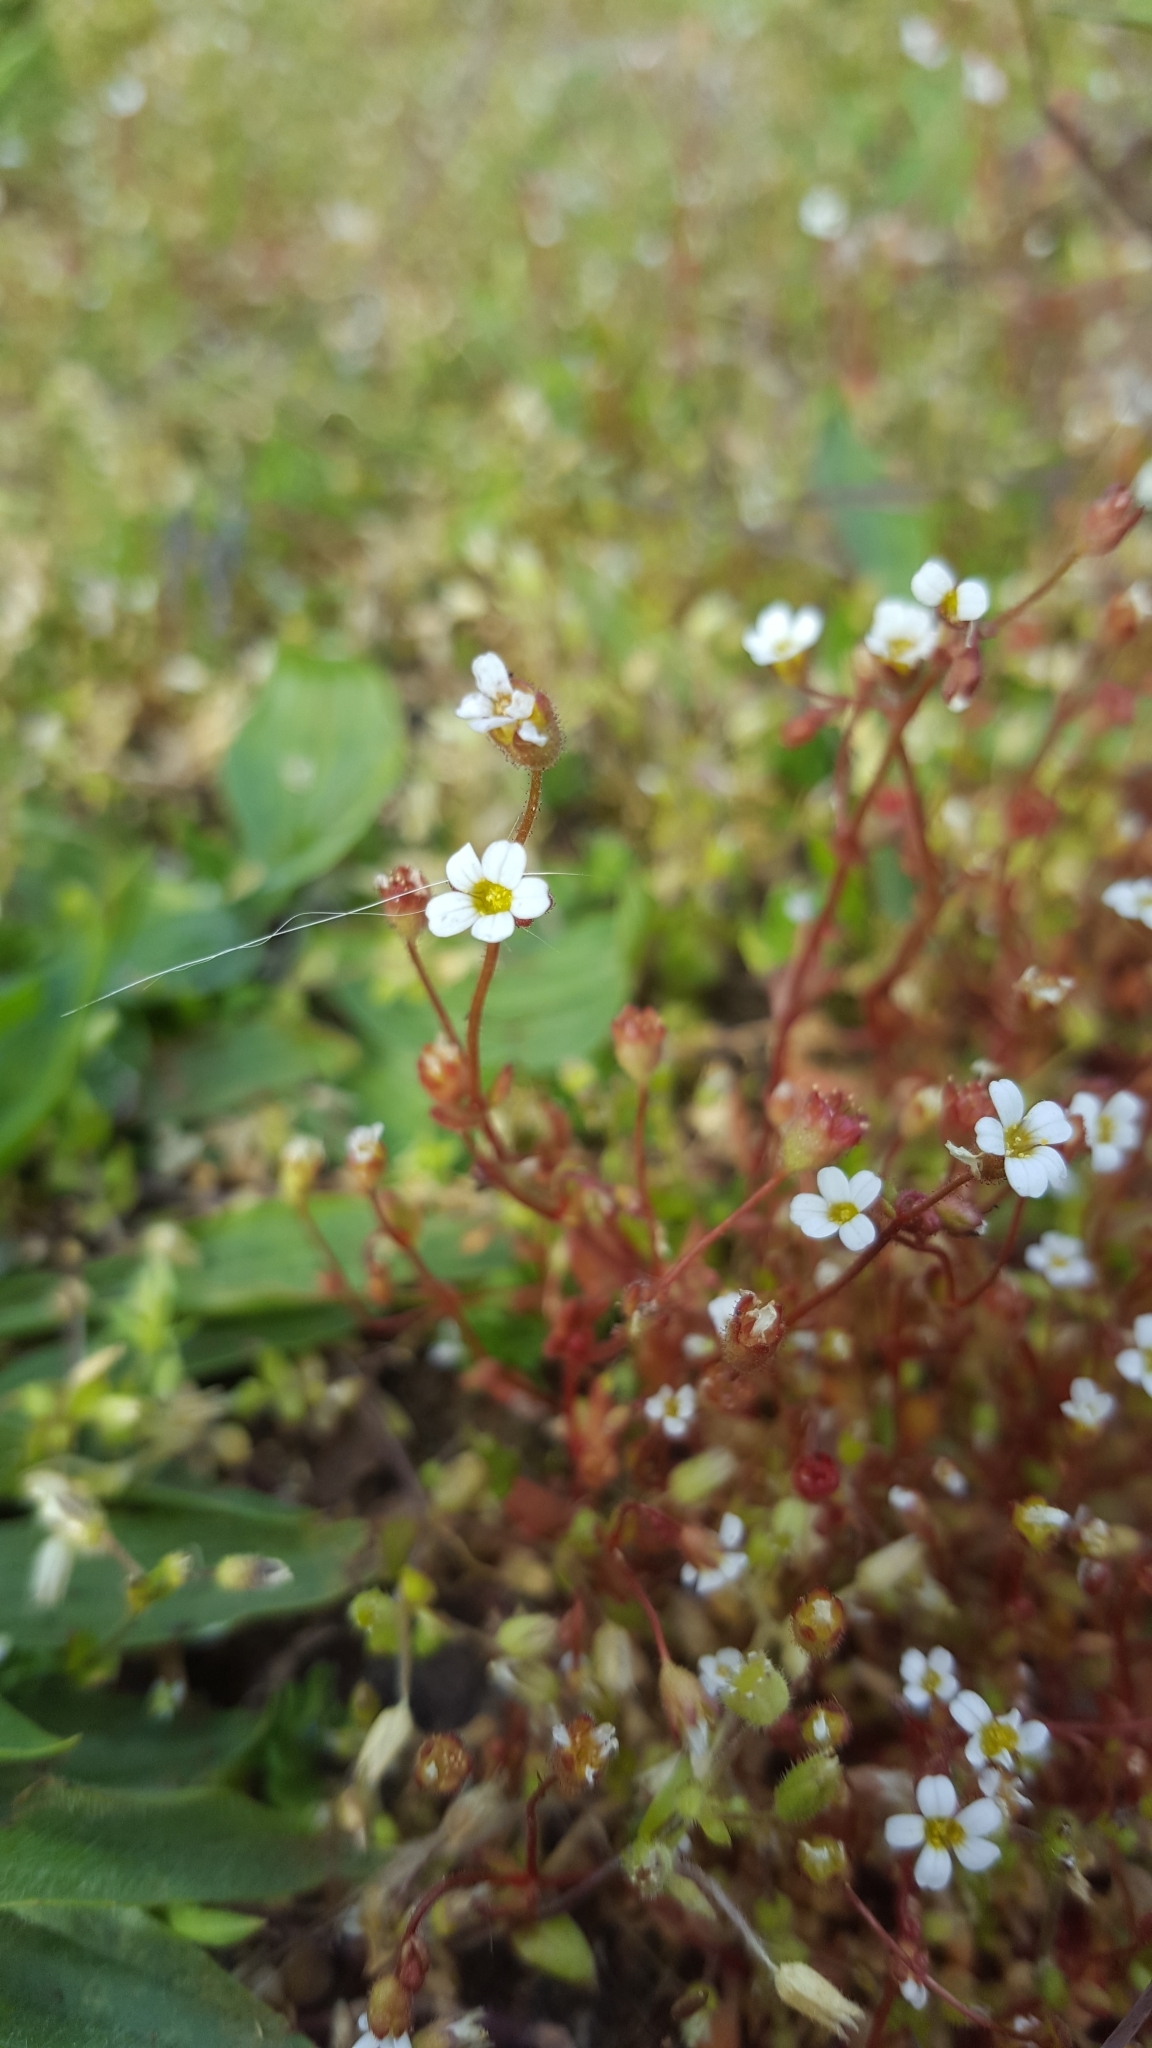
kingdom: Plantae
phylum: Tracheophyta
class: Magnoliopsida
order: Saxifragales
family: Saxifragaceae
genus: Saxifraga
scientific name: Saxifraga tridactylites
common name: Rue-leaved saxifrage
